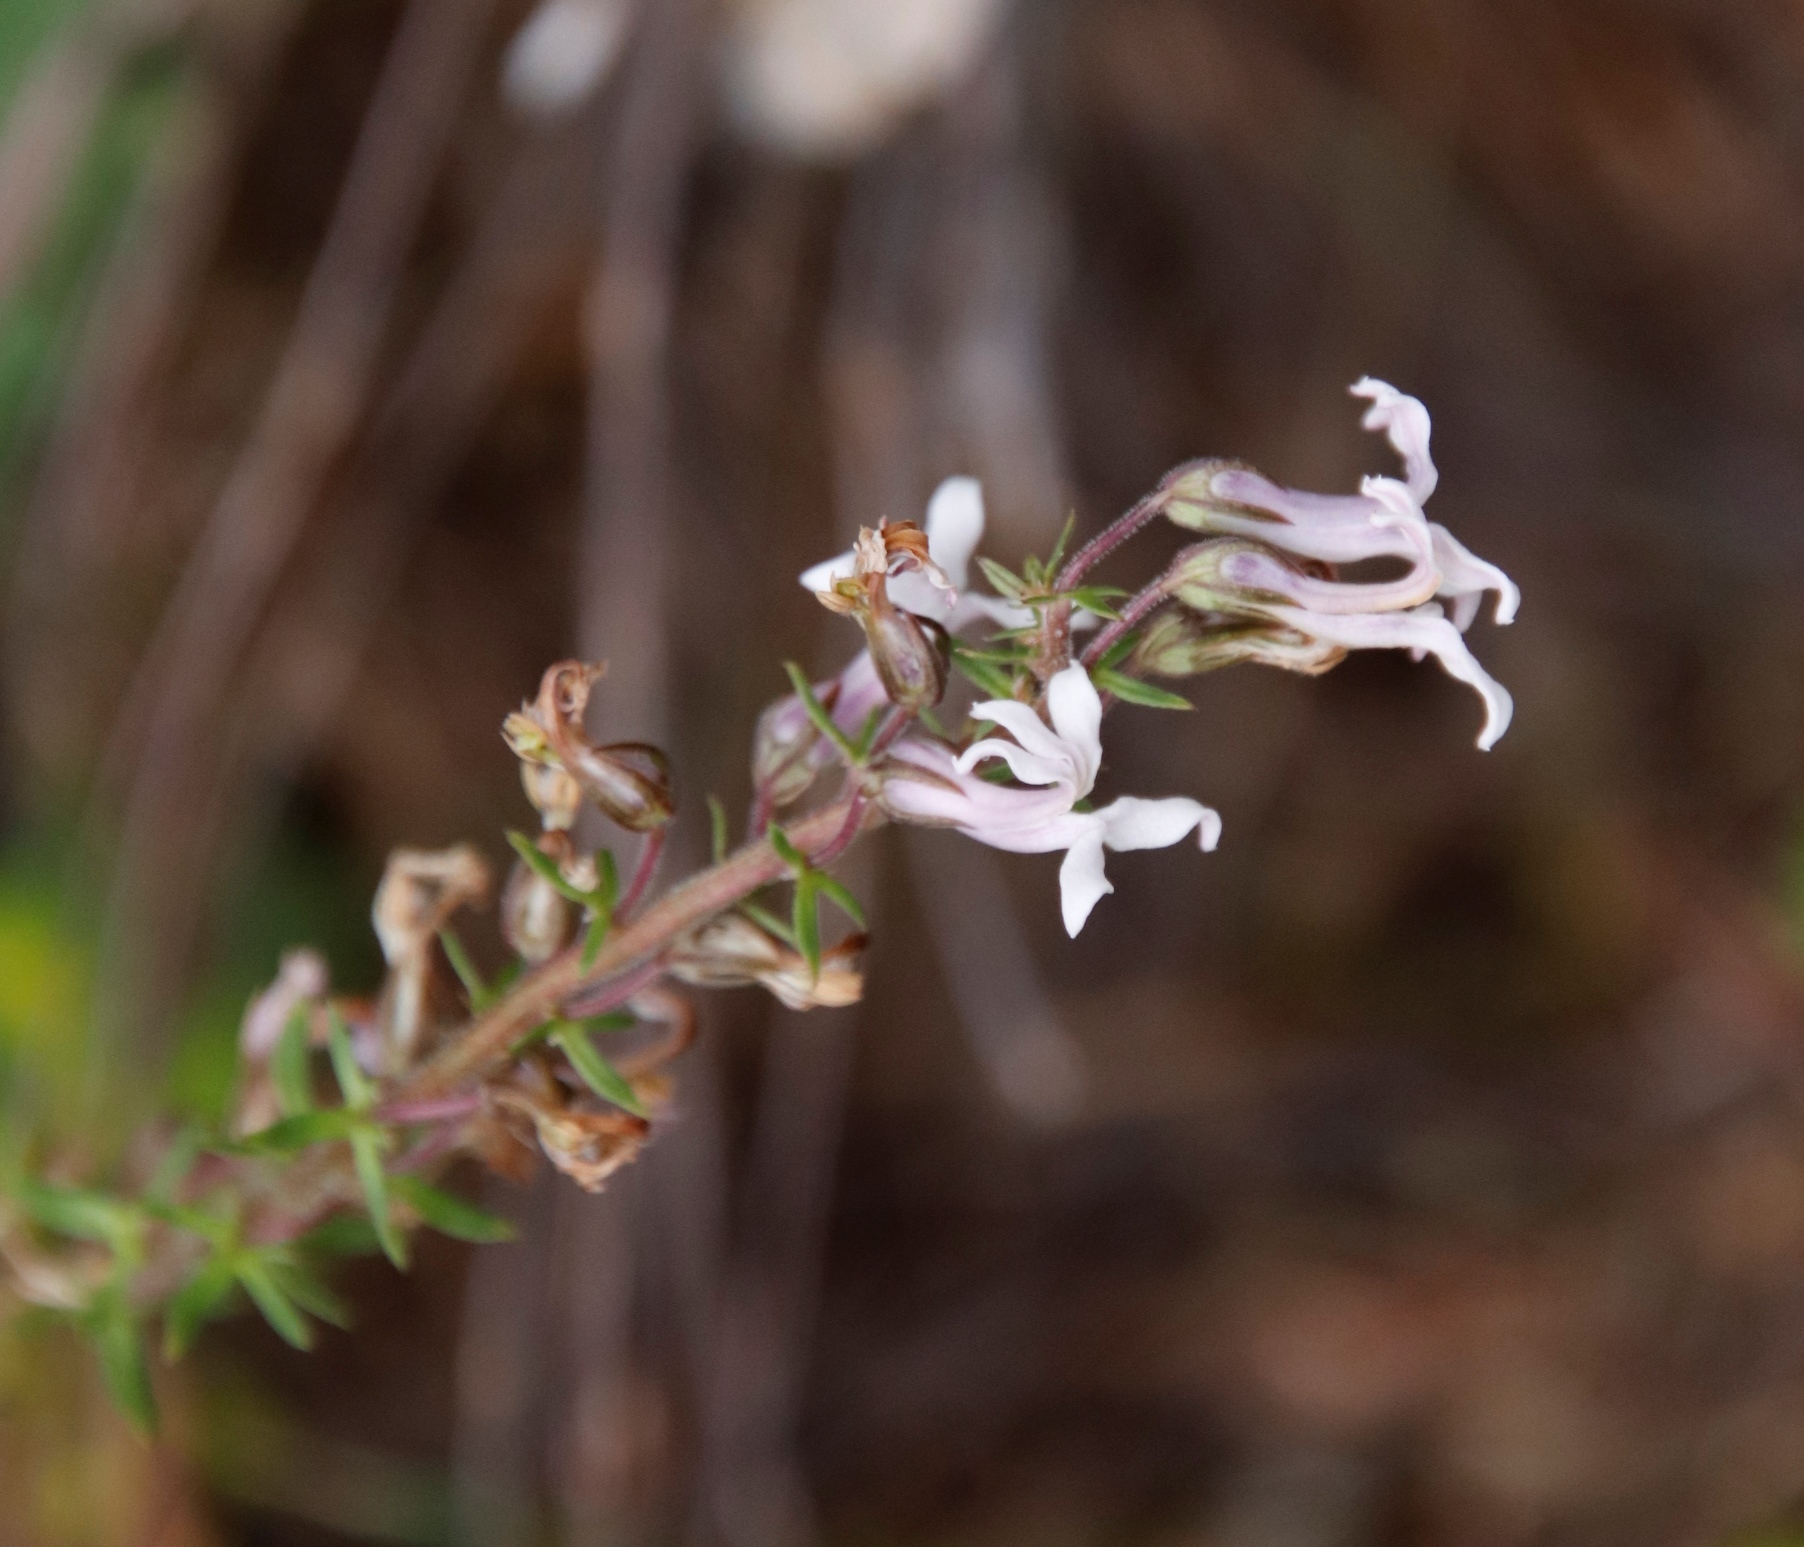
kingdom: Plantae
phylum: Tracheophyta
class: Magnoliopsida
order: Asterales
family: Campanulaceae
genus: Cyphia
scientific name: Cyphia bulbosa
